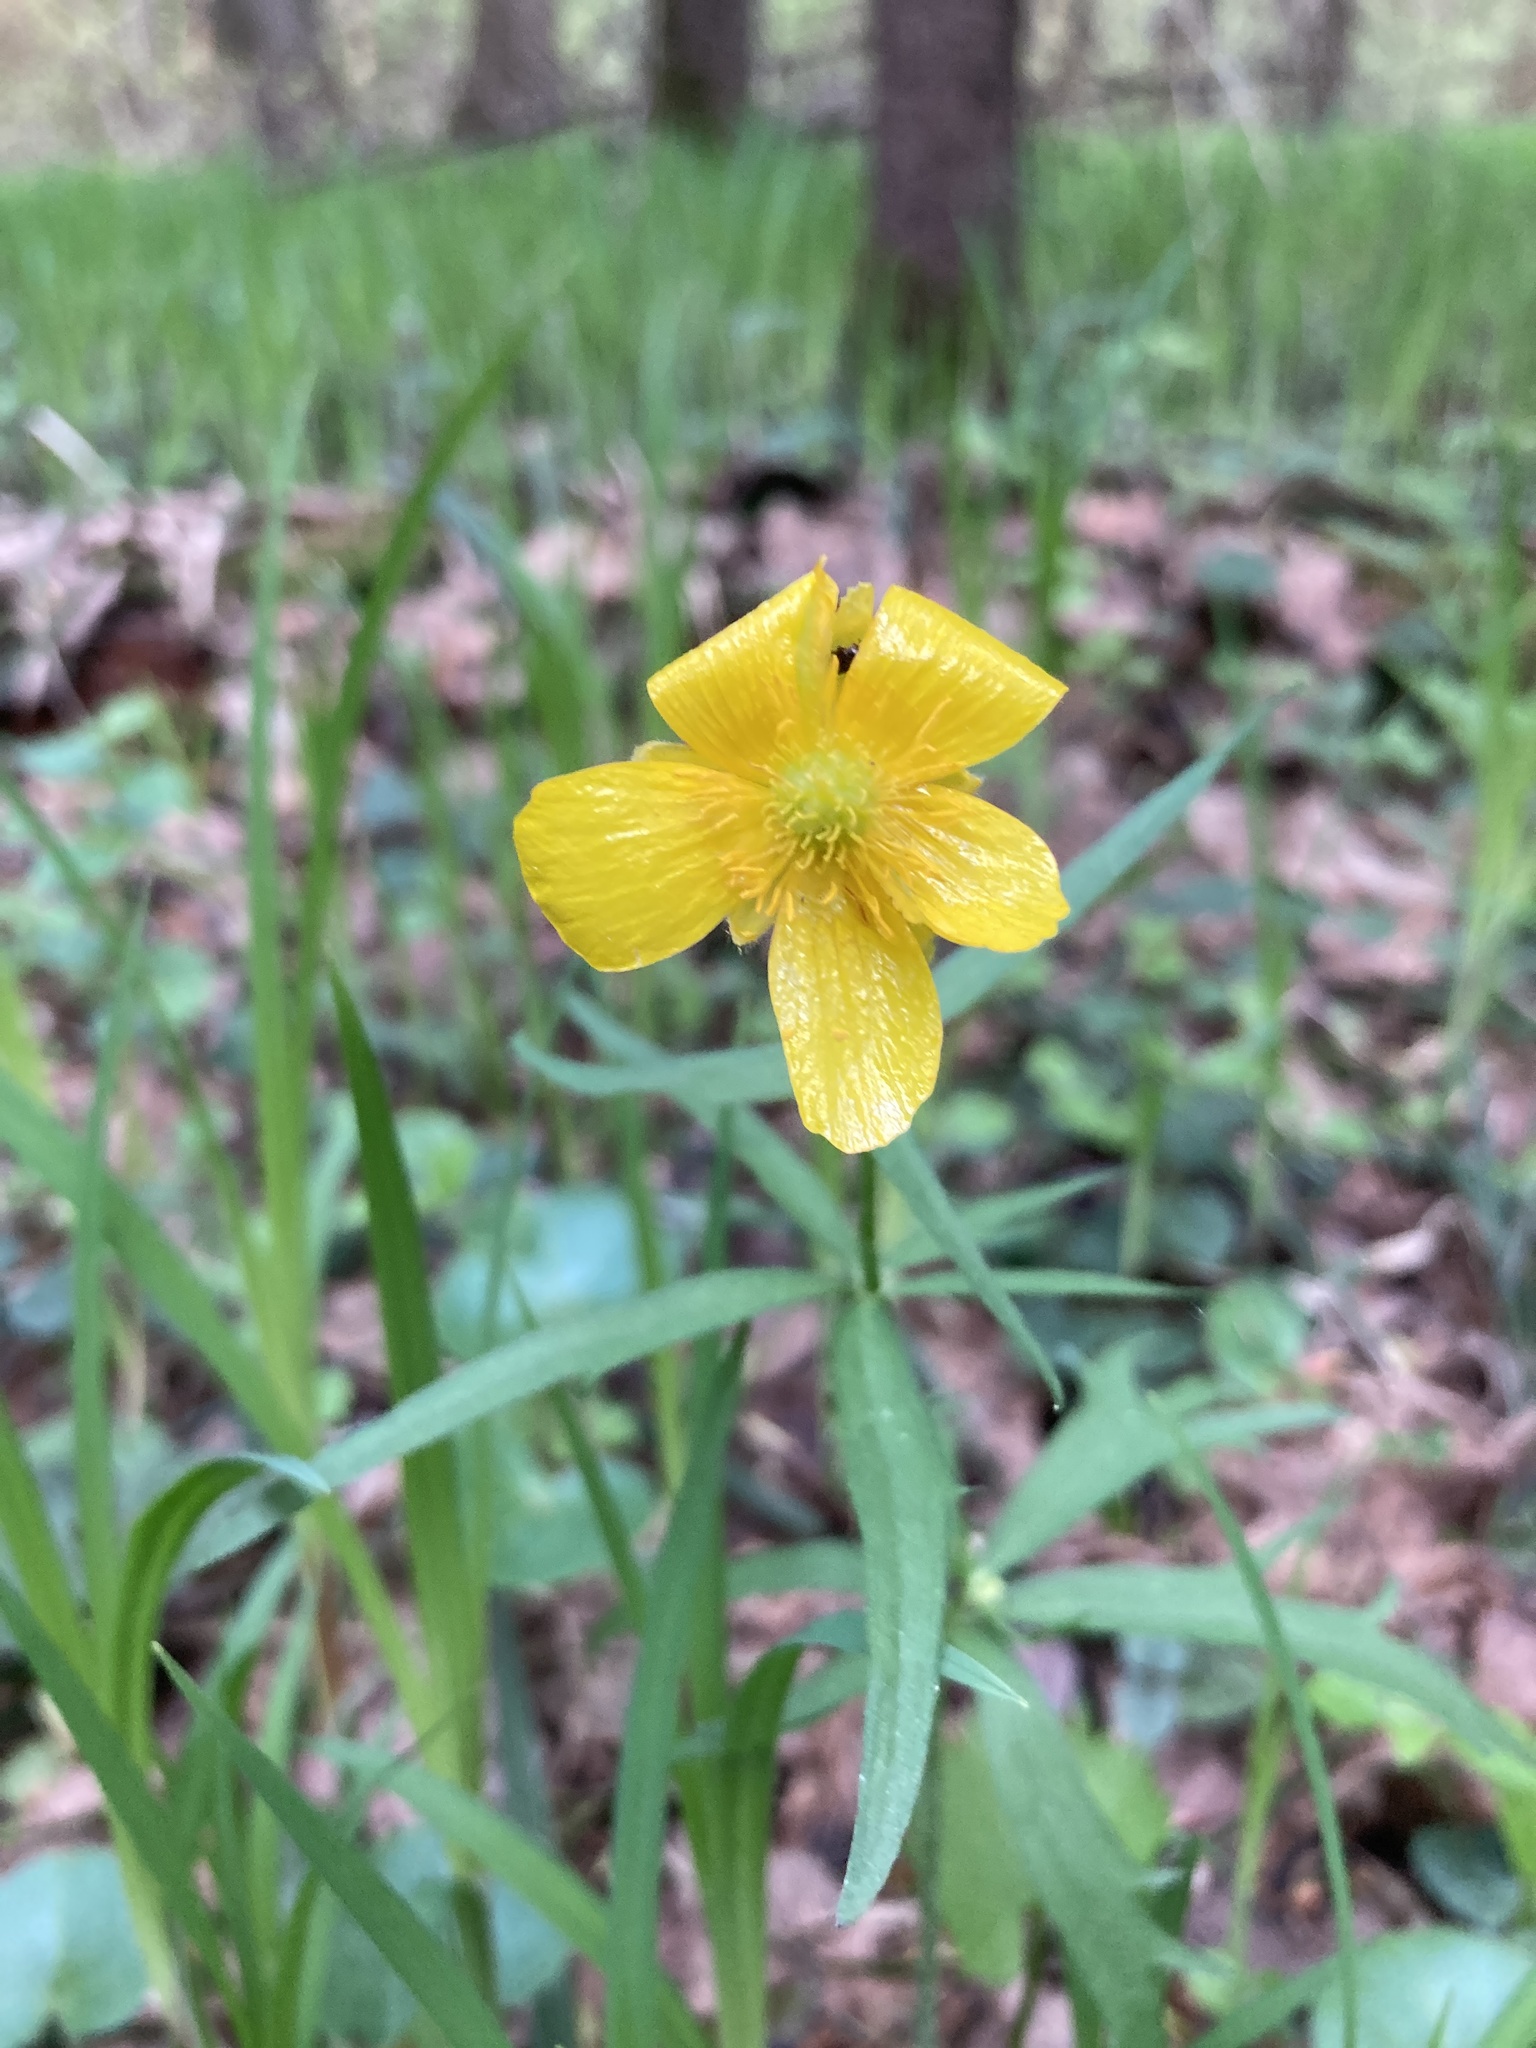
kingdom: Plantae
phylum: Tracheophyta
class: Magnoliopsida
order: Ranunculales
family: Ranunculaceae
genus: Ranunculus
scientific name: Ranunculus cassubicus
